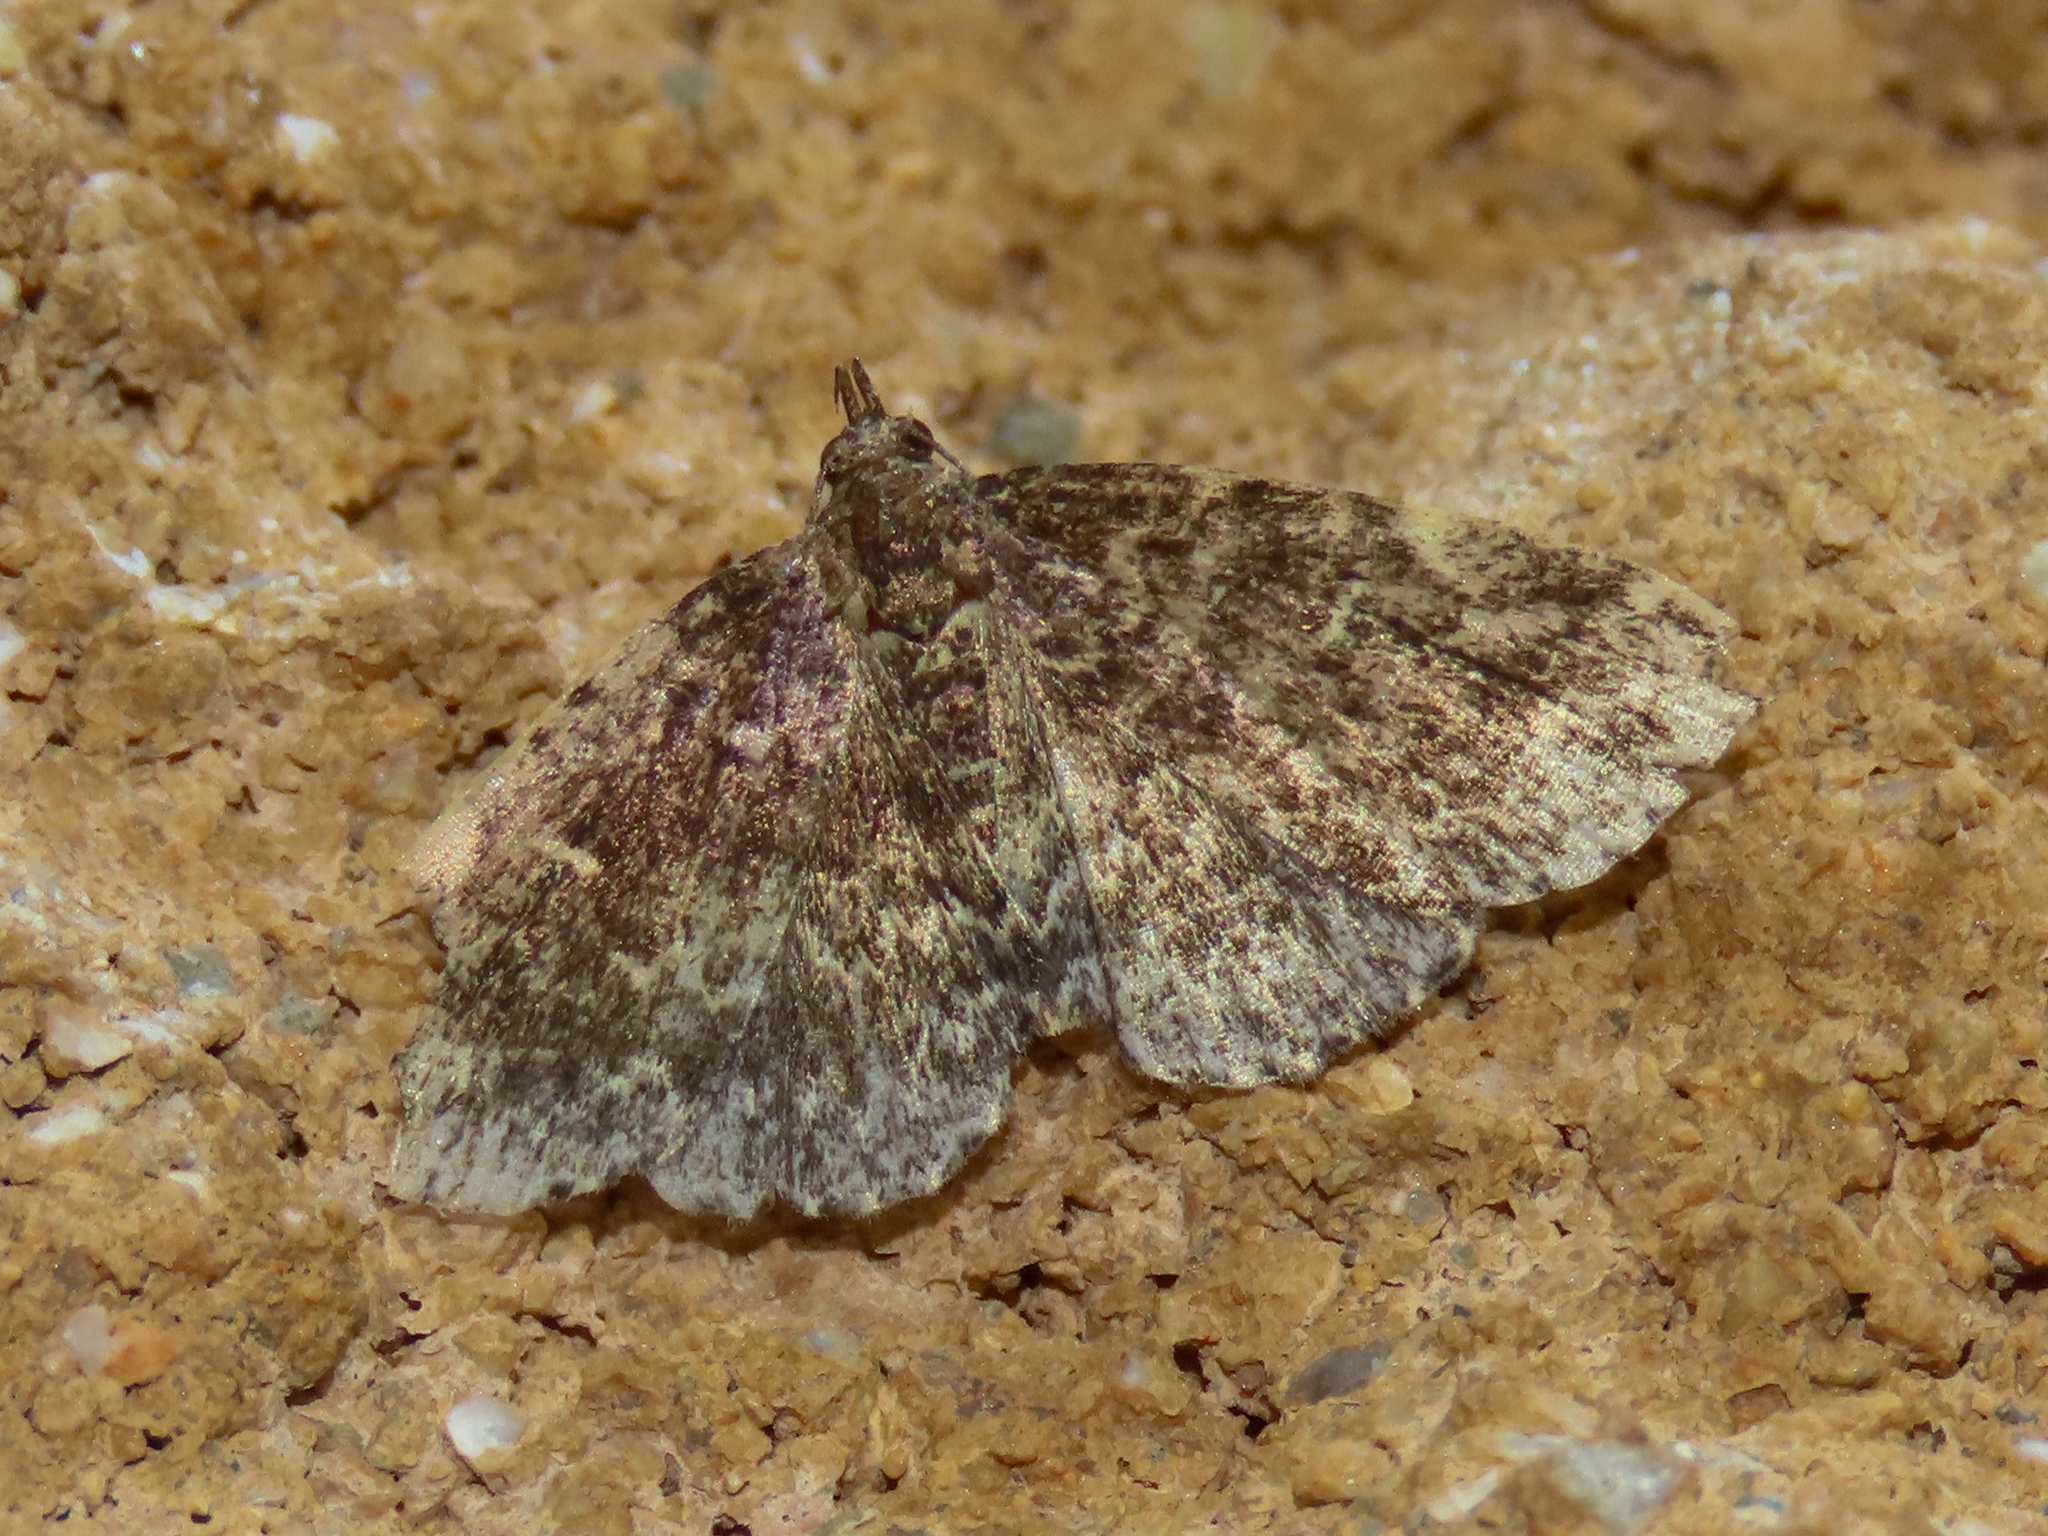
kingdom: Animalia
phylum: Arthropoda
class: Insecta
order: Lepidoptera
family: Erebidae
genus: Idia
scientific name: Idia scobialis
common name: Smoky idia moth
